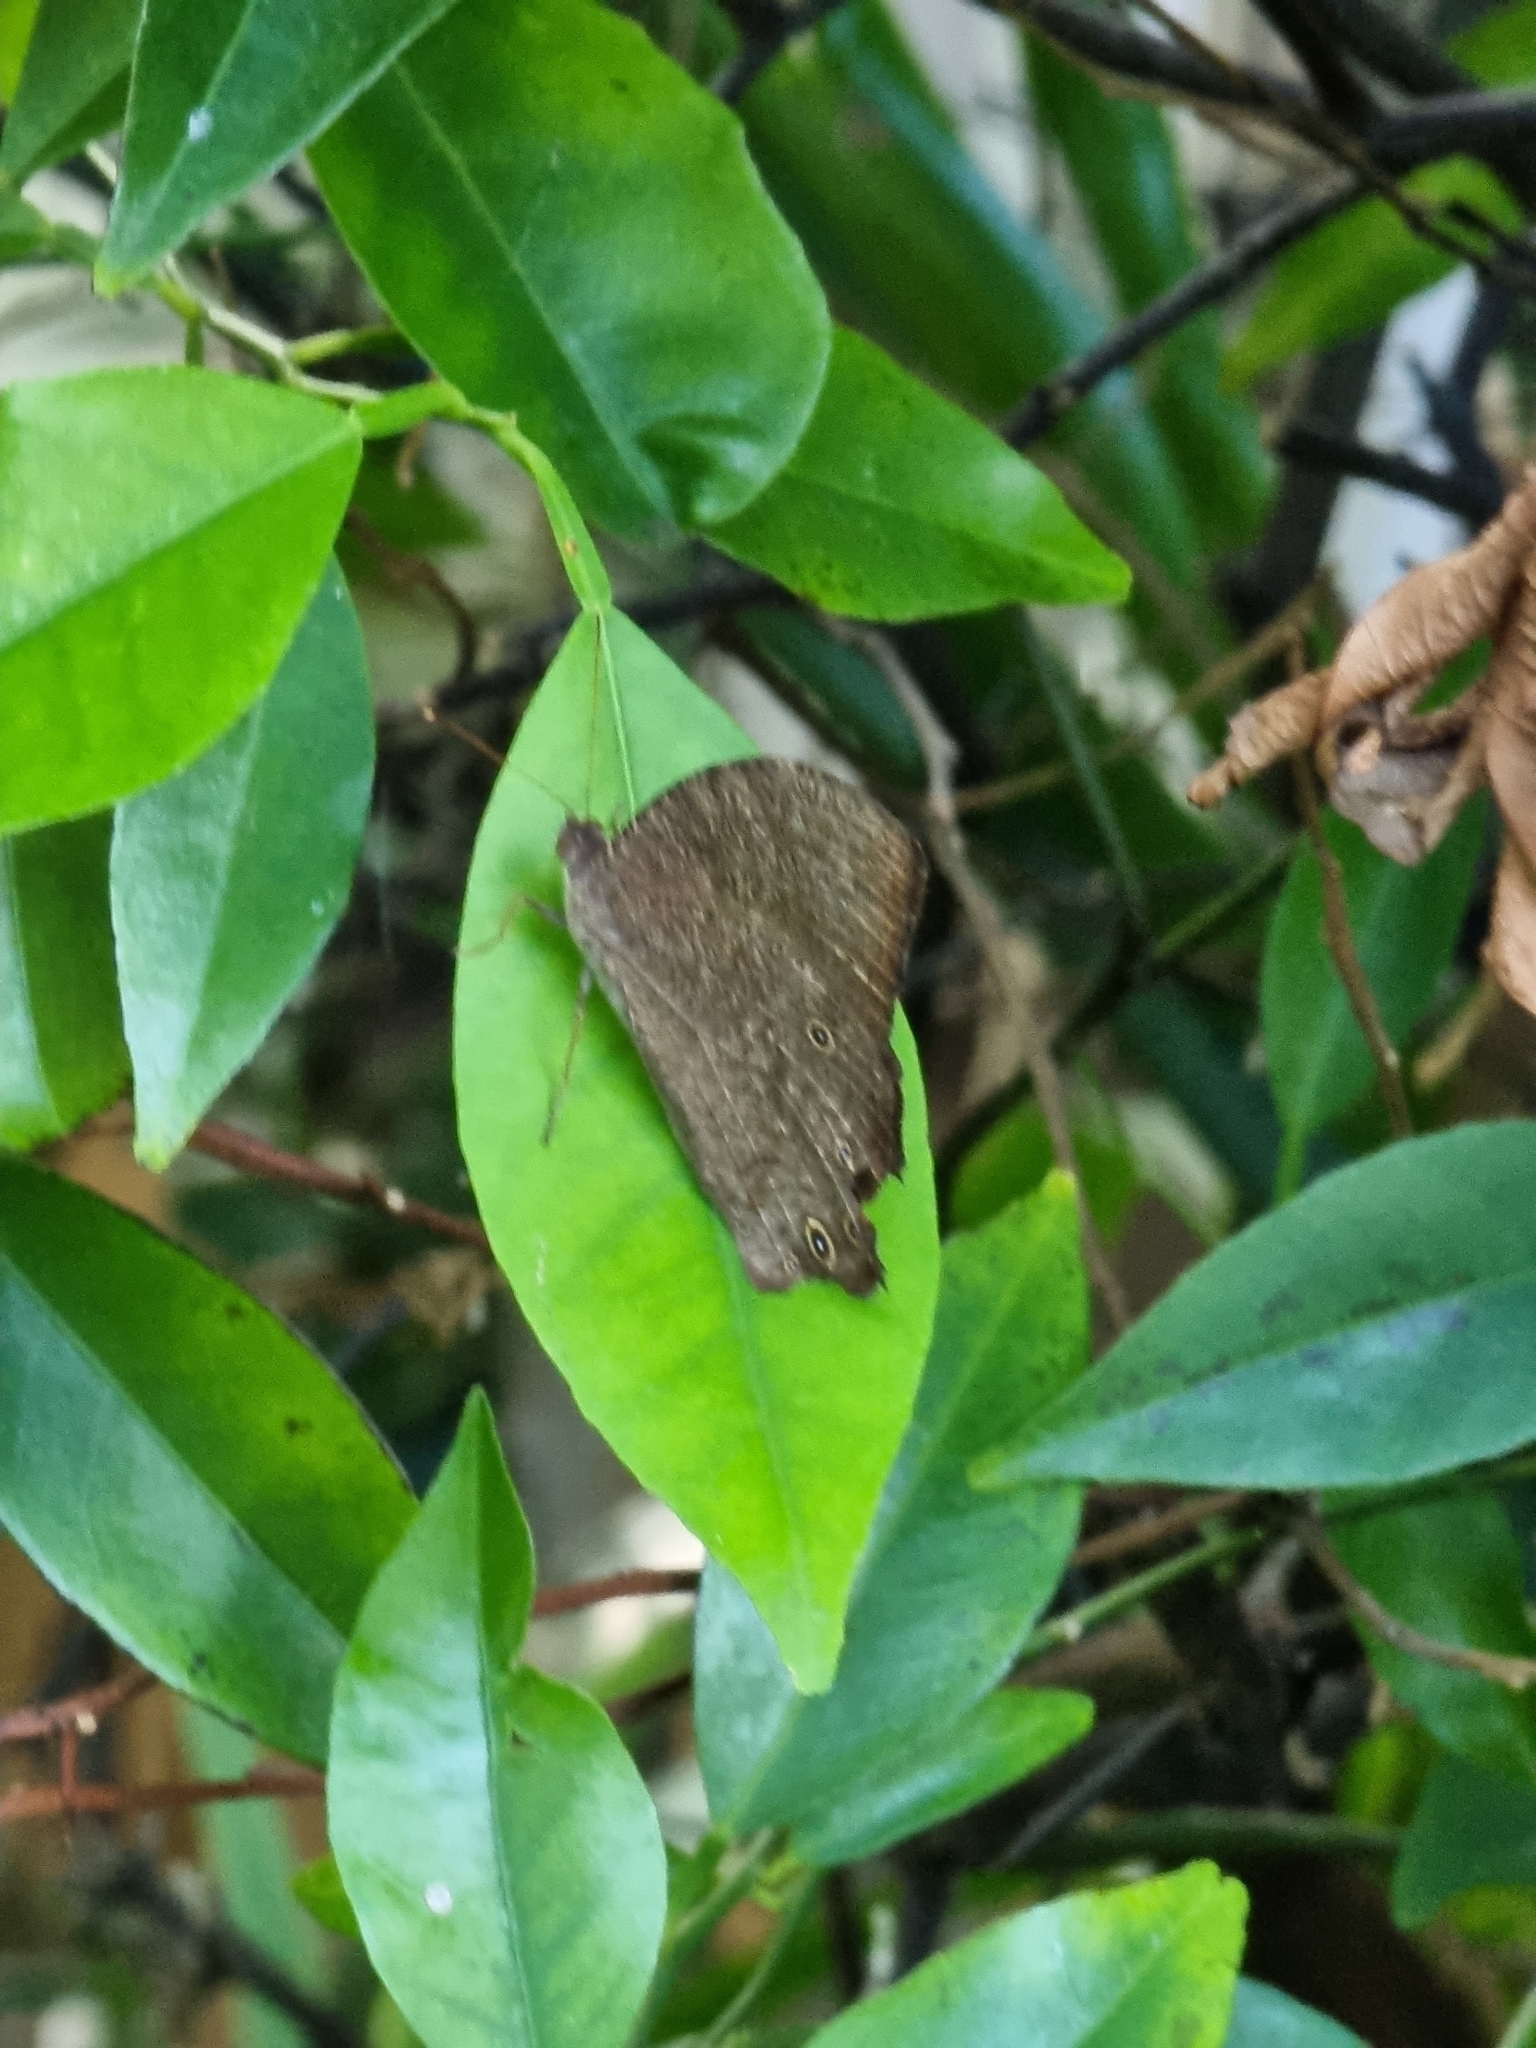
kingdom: Animalia
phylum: Arthropoda
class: Insecta
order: Lepidoptera
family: Nymphalidae
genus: Melanitis
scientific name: Melanitis leda
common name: Twilight brown
